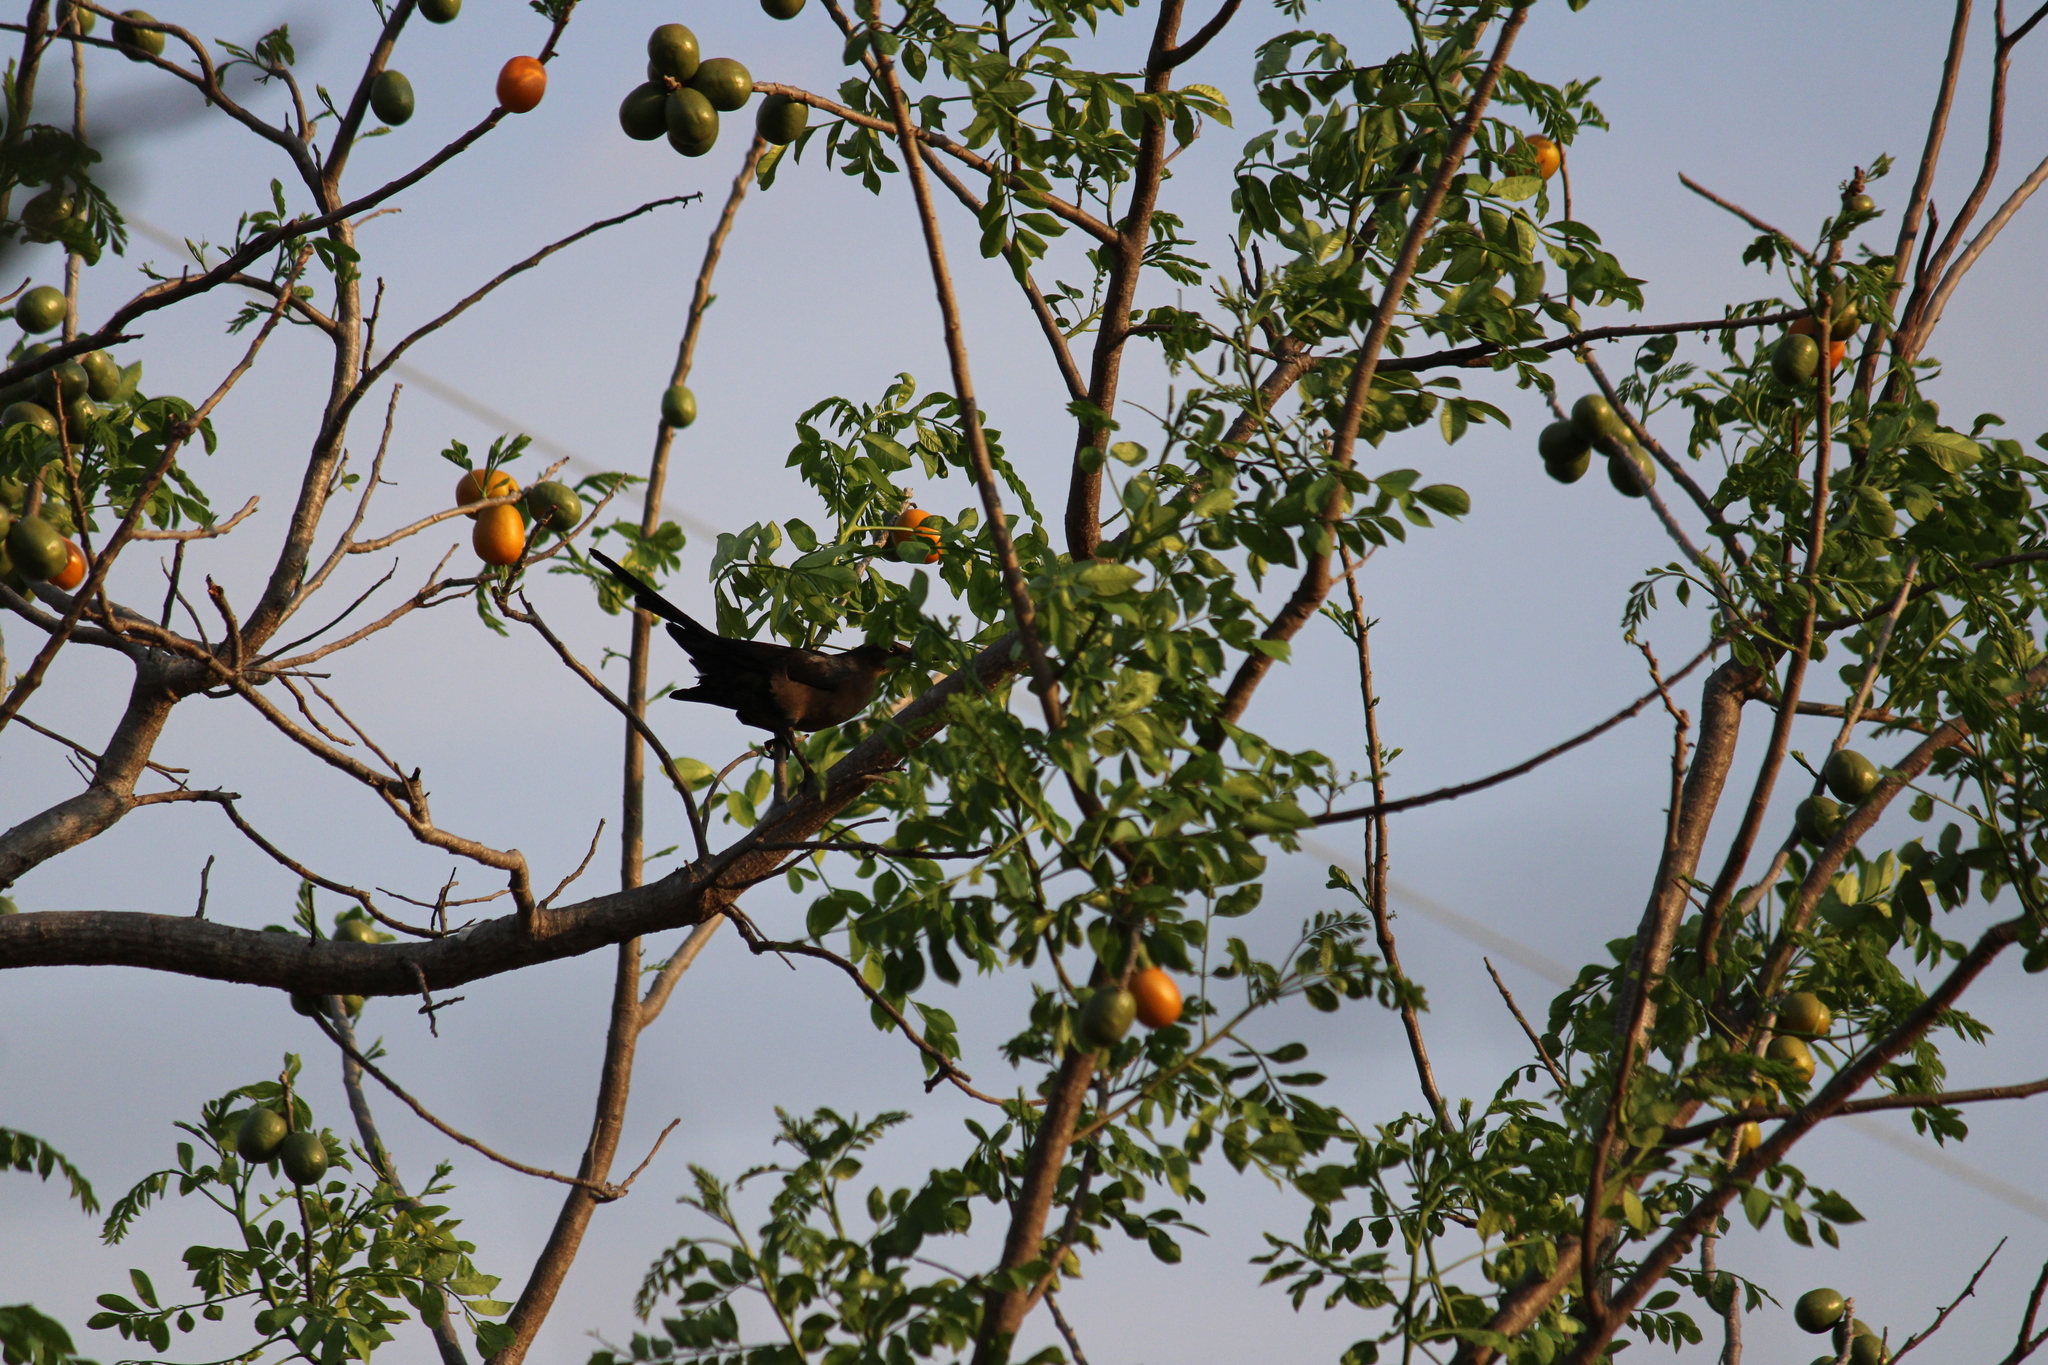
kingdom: Animalia
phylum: Chordata
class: Aves
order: Passeriformes
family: Icteridae
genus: Quiscalus
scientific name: Quiscalus mexicanus
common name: Great-tailed grackle
